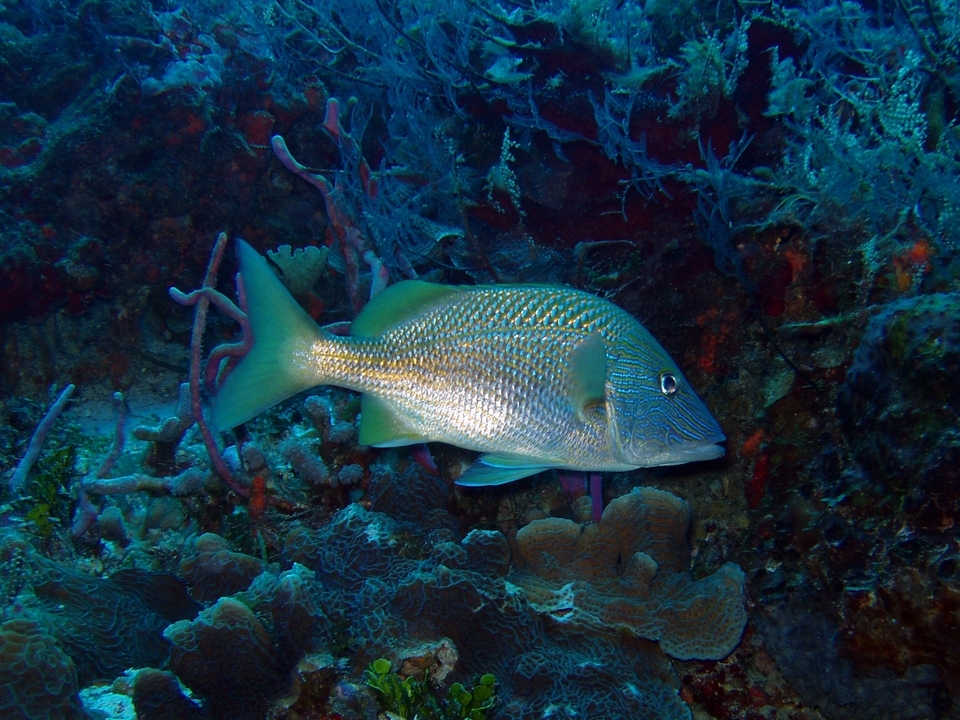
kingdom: Animalia
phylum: Chordata
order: Perciformes
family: Haemulidae
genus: Haemulon
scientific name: Haemulon plumierii
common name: White grunt
